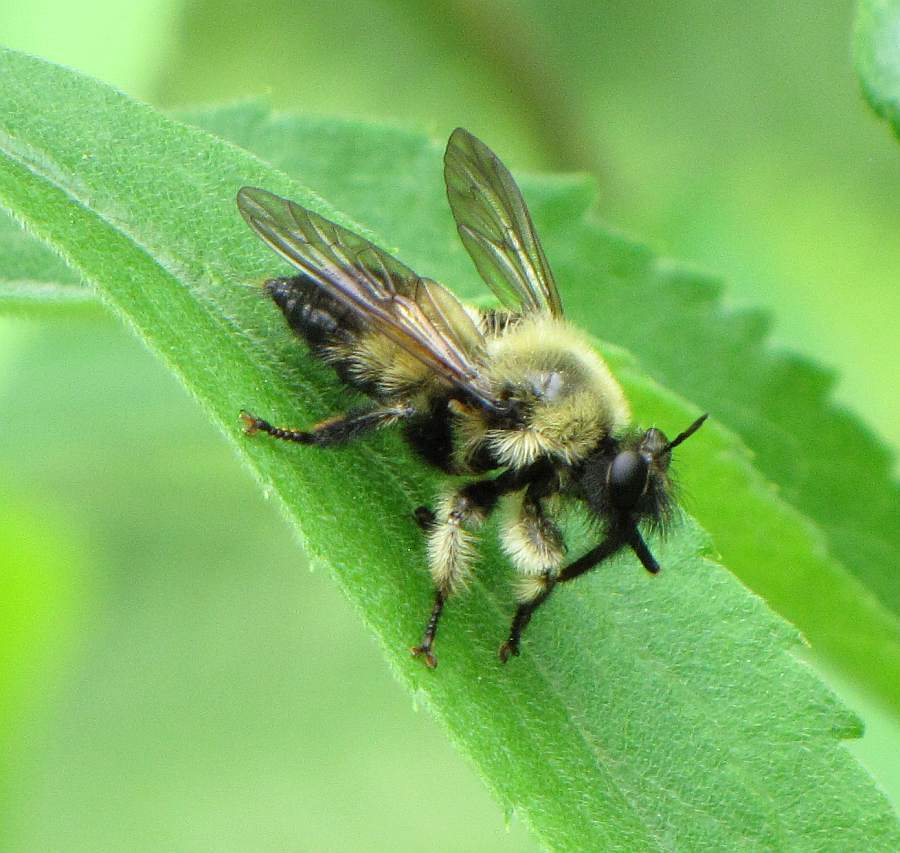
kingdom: Animalia
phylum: Arthropoda
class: Insecta
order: Diptera
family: Asilidae
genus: Laphria
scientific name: Laphria sacrator
